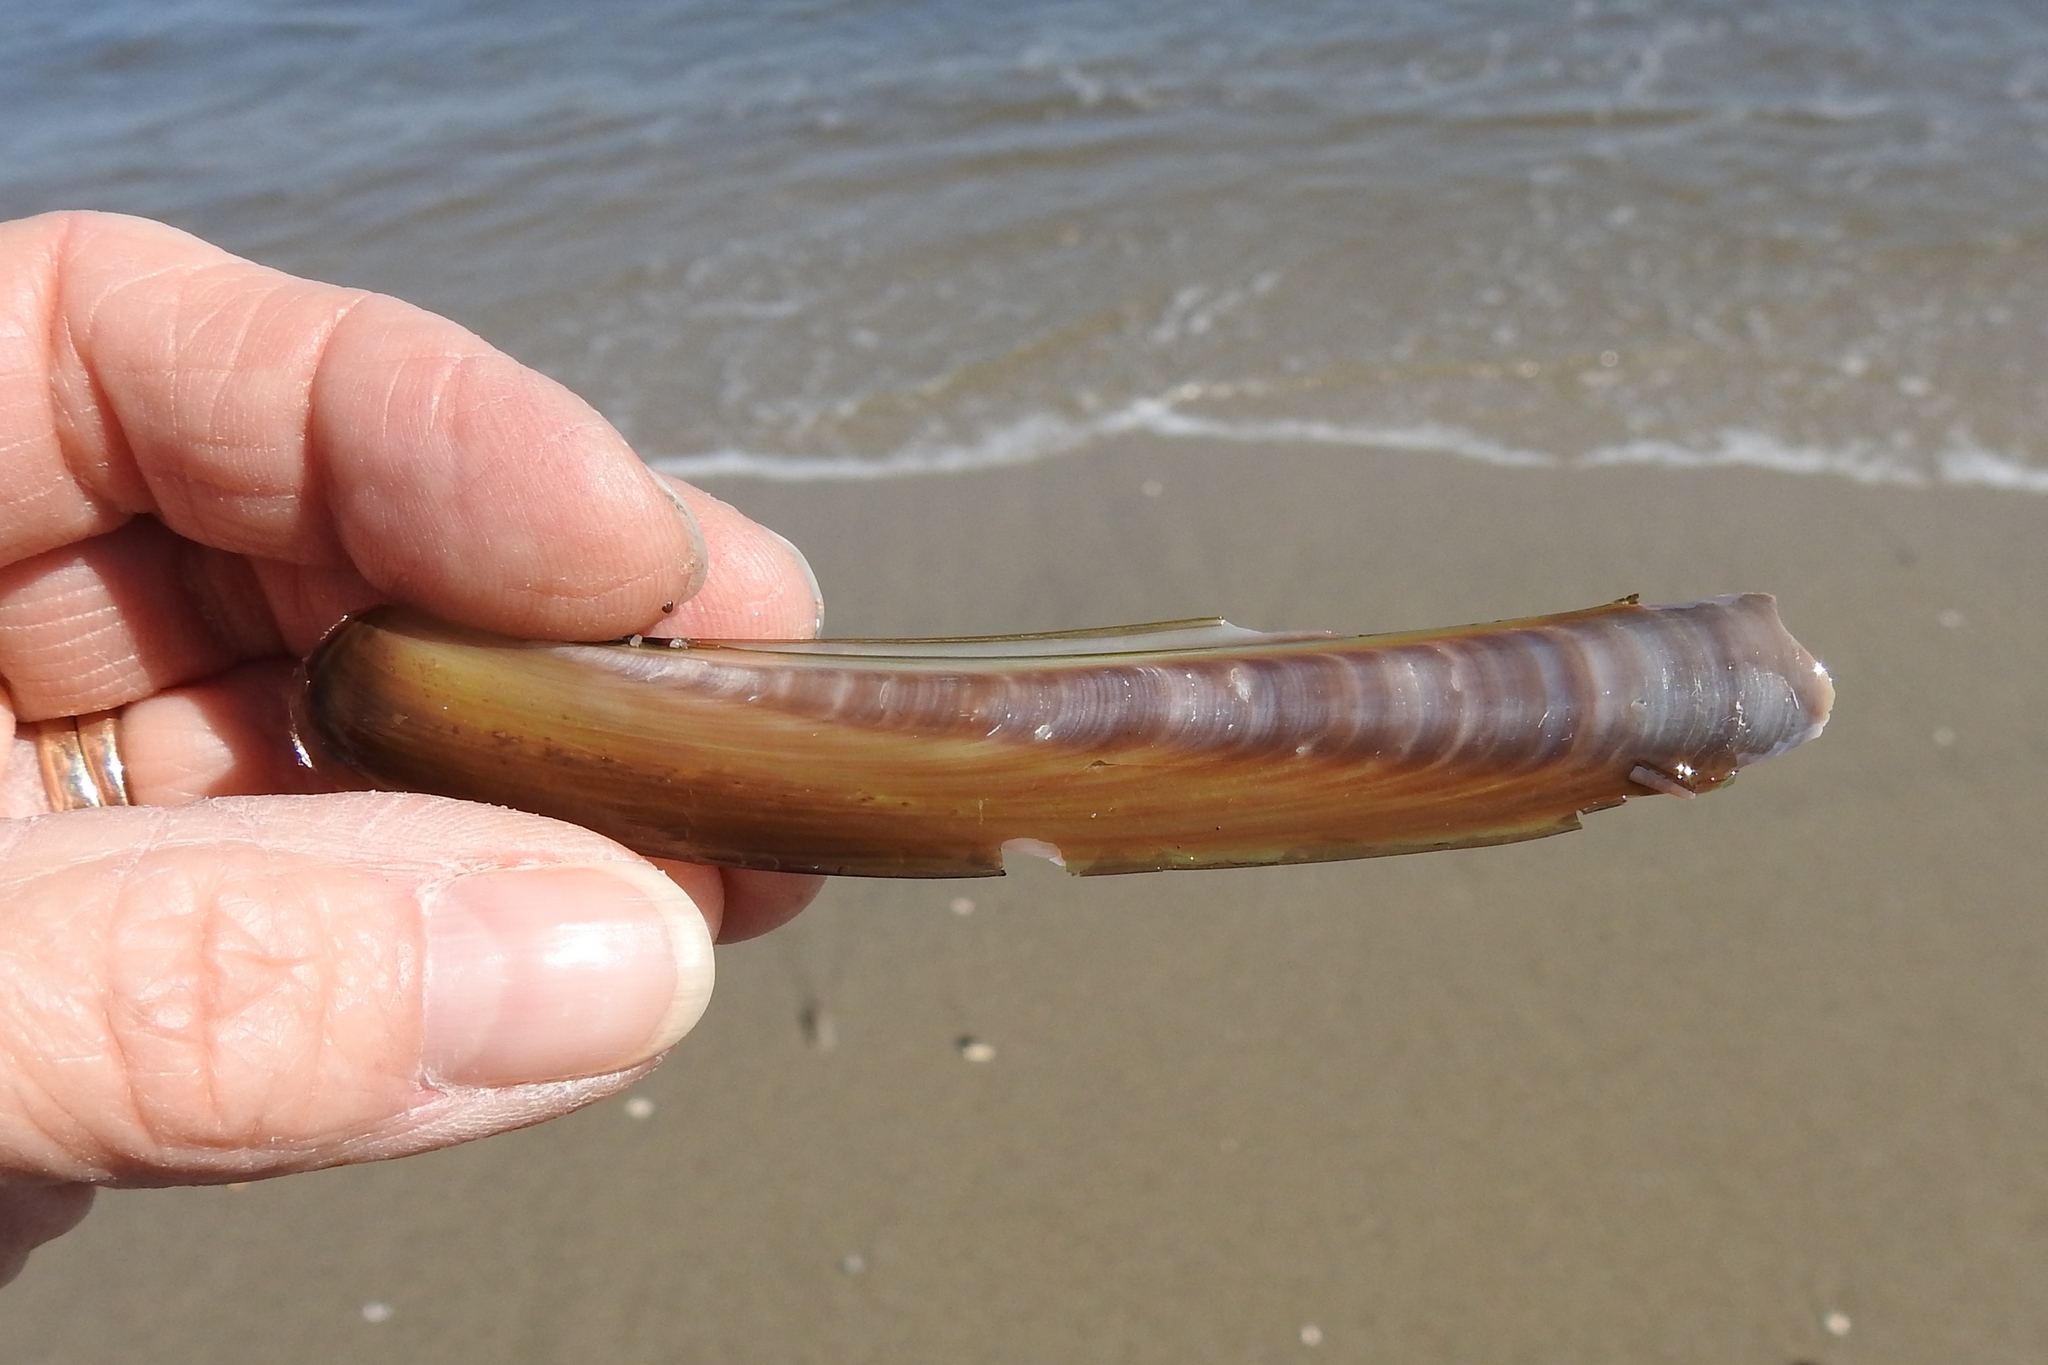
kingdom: Animalia
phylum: Mollusca
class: Bivalvia
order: Adapedonta
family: Pharidae
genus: Ensis
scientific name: Ensis leei
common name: American jack knife clam
